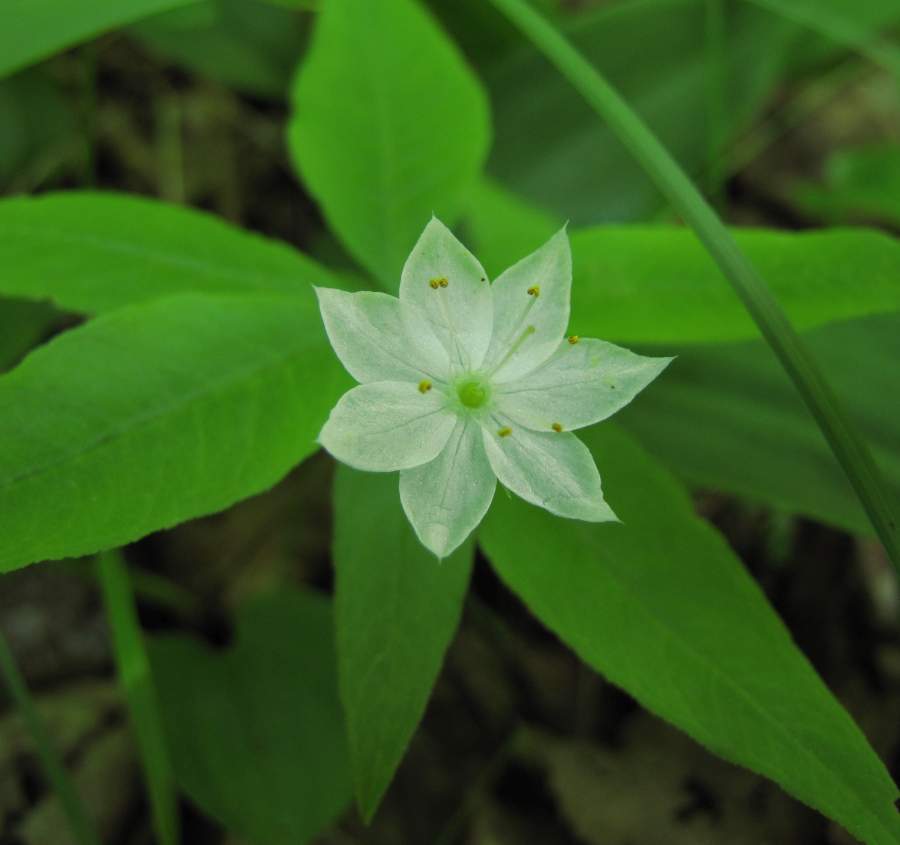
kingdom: Plantae
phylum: Tracheophyta
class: Magnoliopsida
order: Ericales
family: Primulaceae
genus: Lysimachia
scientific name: Lysimachia borealis
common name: American starflower
